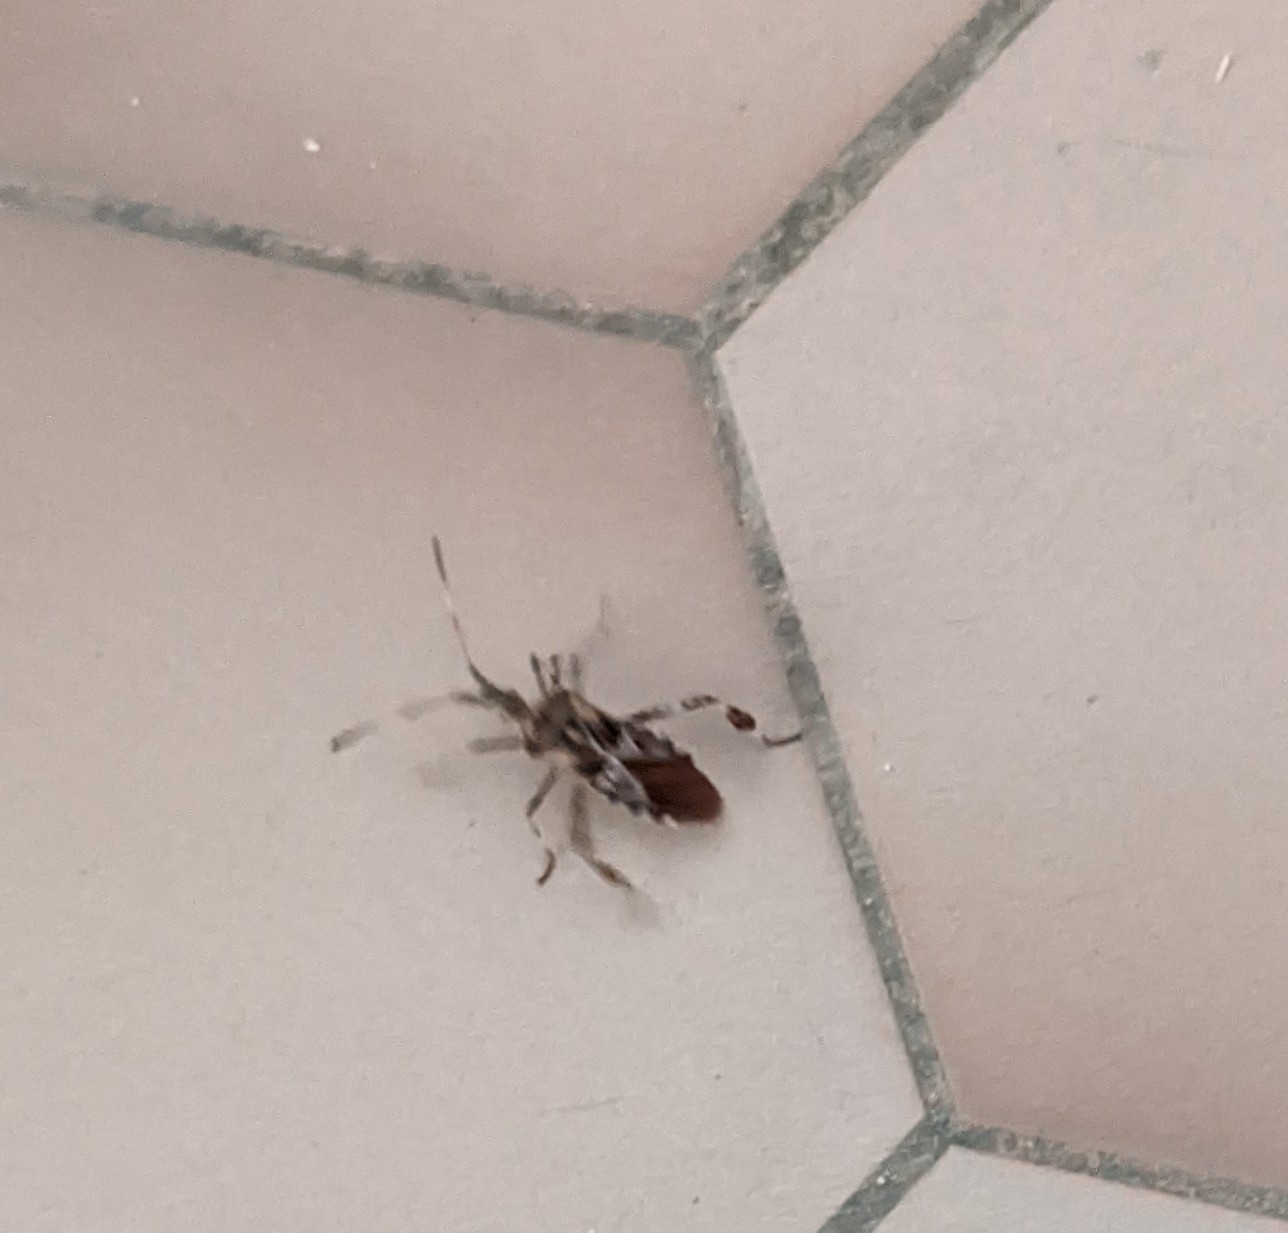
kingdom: Animalia
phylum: Arthropoda
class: Insecta
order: Hemiptera
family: Coreidae
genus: Leptoglossus
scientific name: Leptoglossus occidentalis
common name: Western conifer-seed bug
